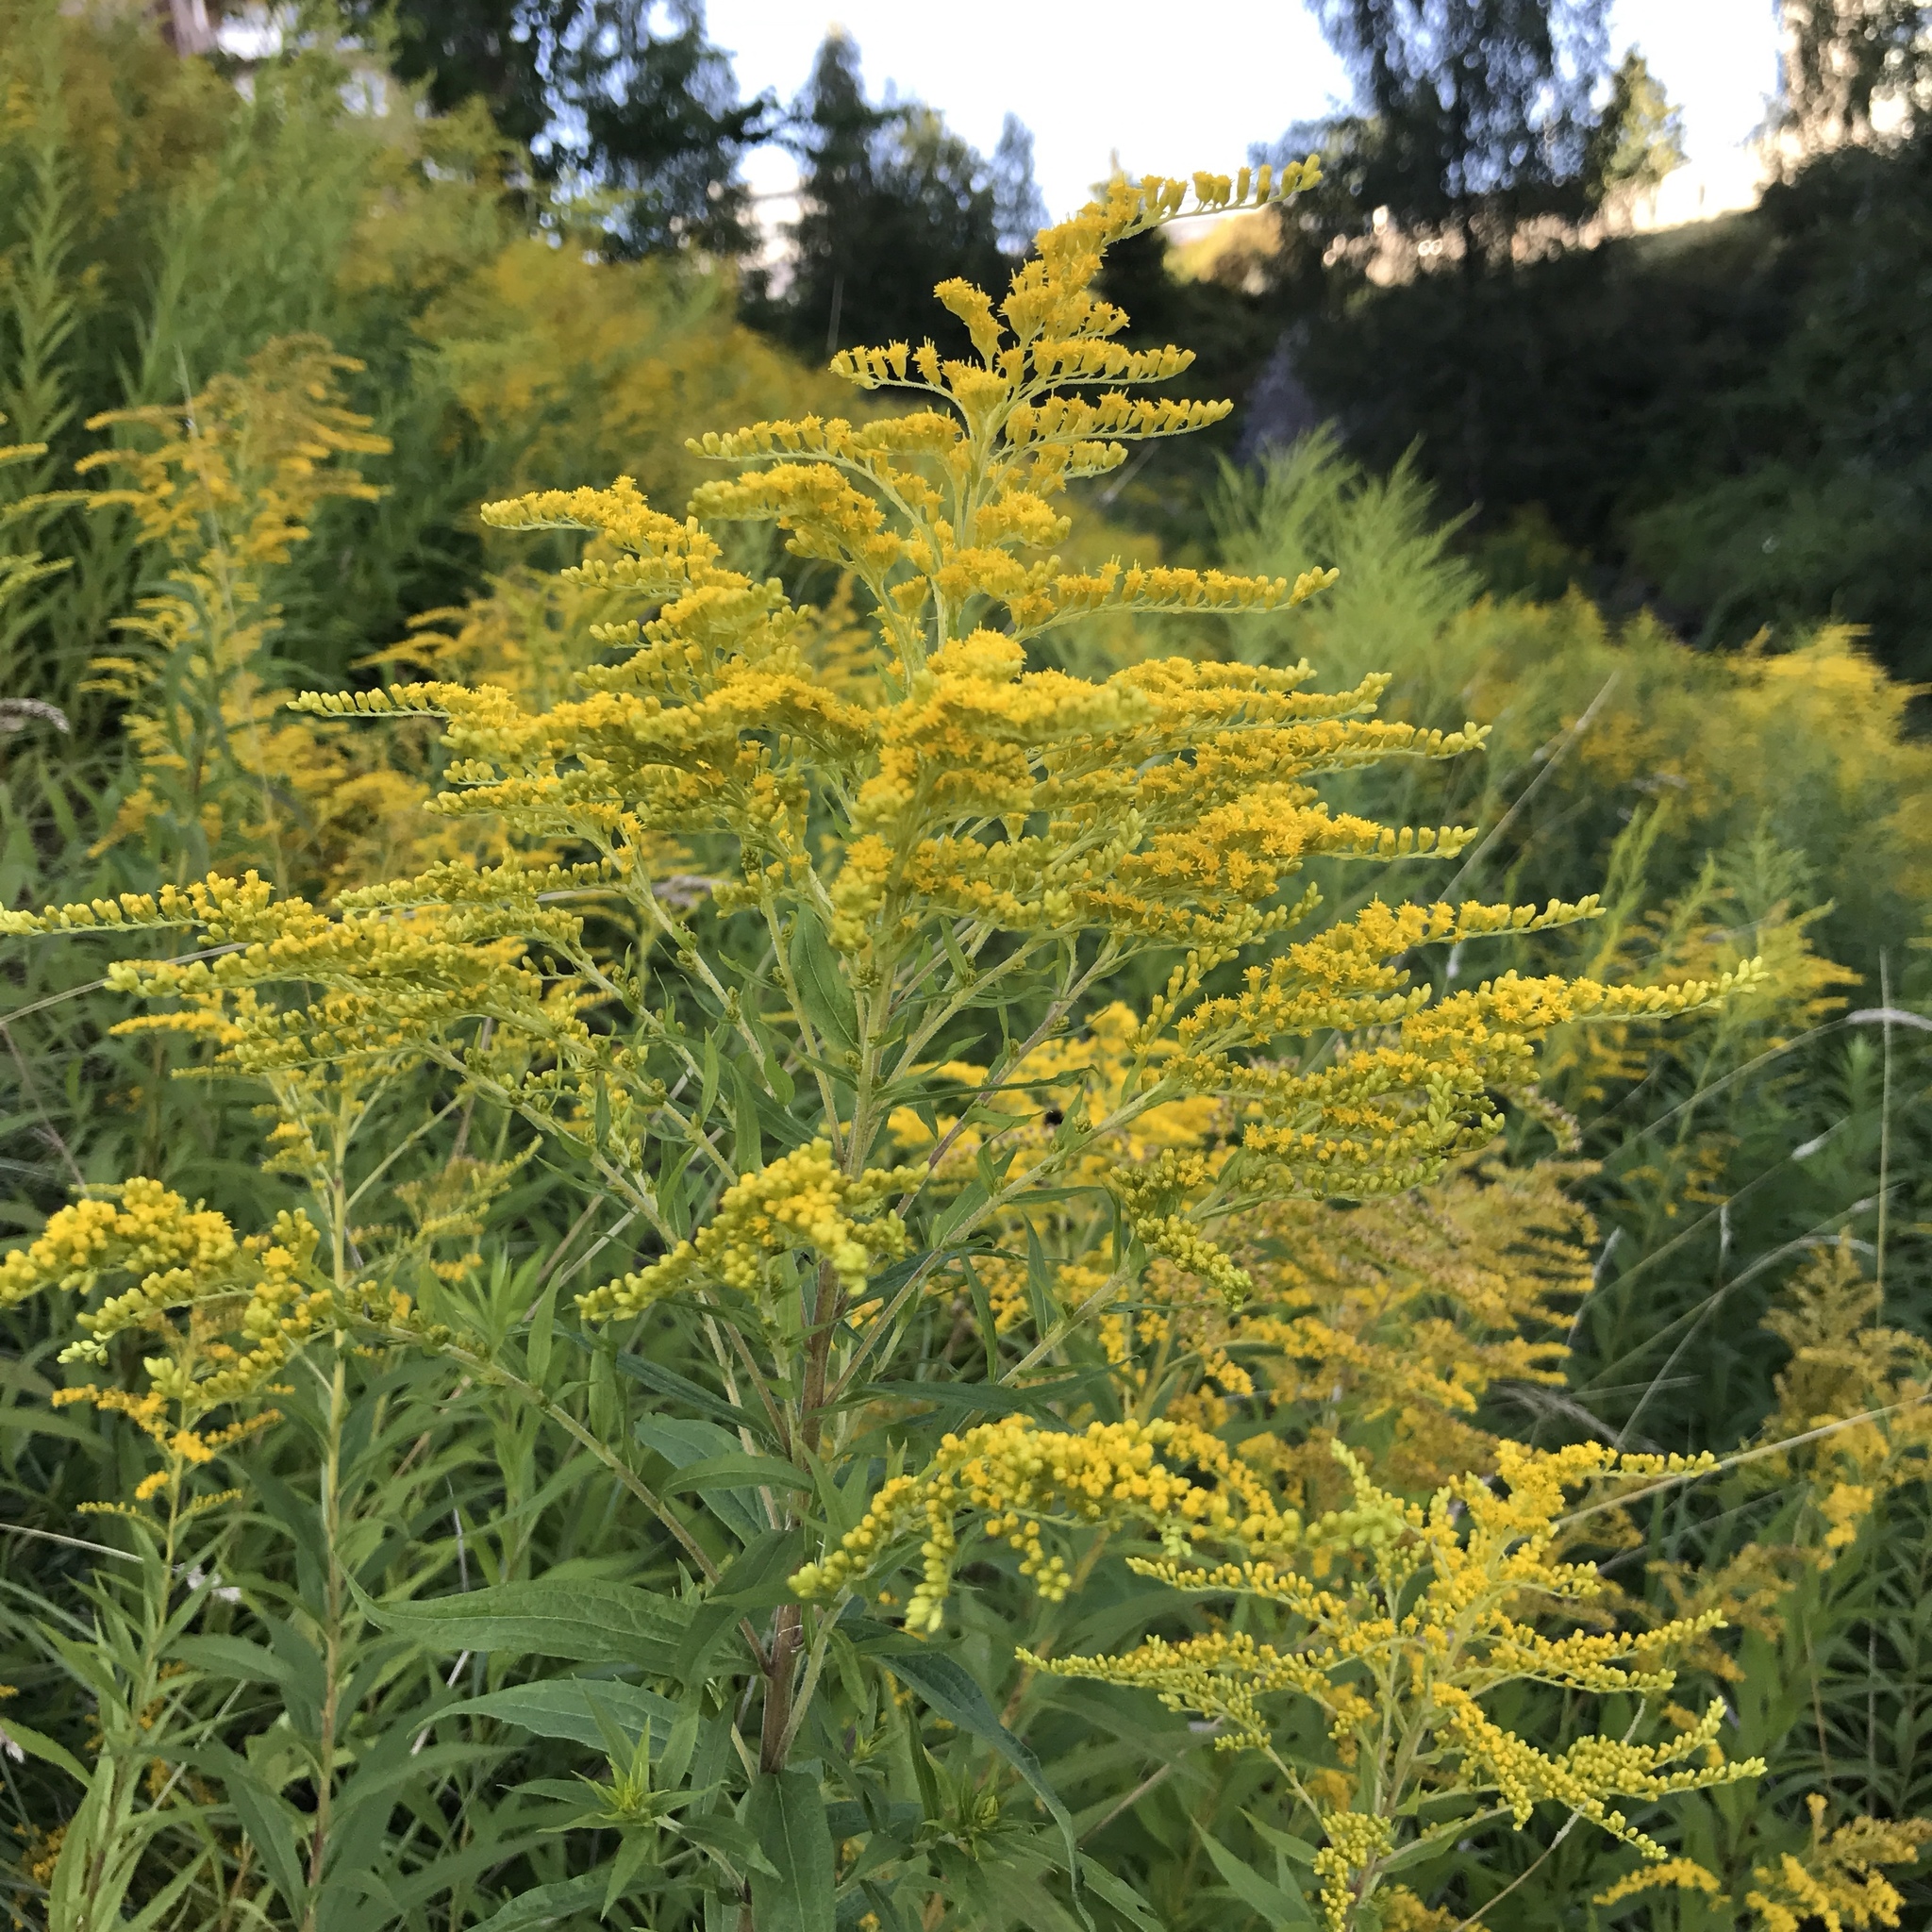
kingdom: Plantae
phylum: Tracheophyta
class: Magnoliopsida
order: Asterales
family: Asteraceae
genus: Solidago
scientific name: Solidago canadensis
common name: Canada goldenrod
